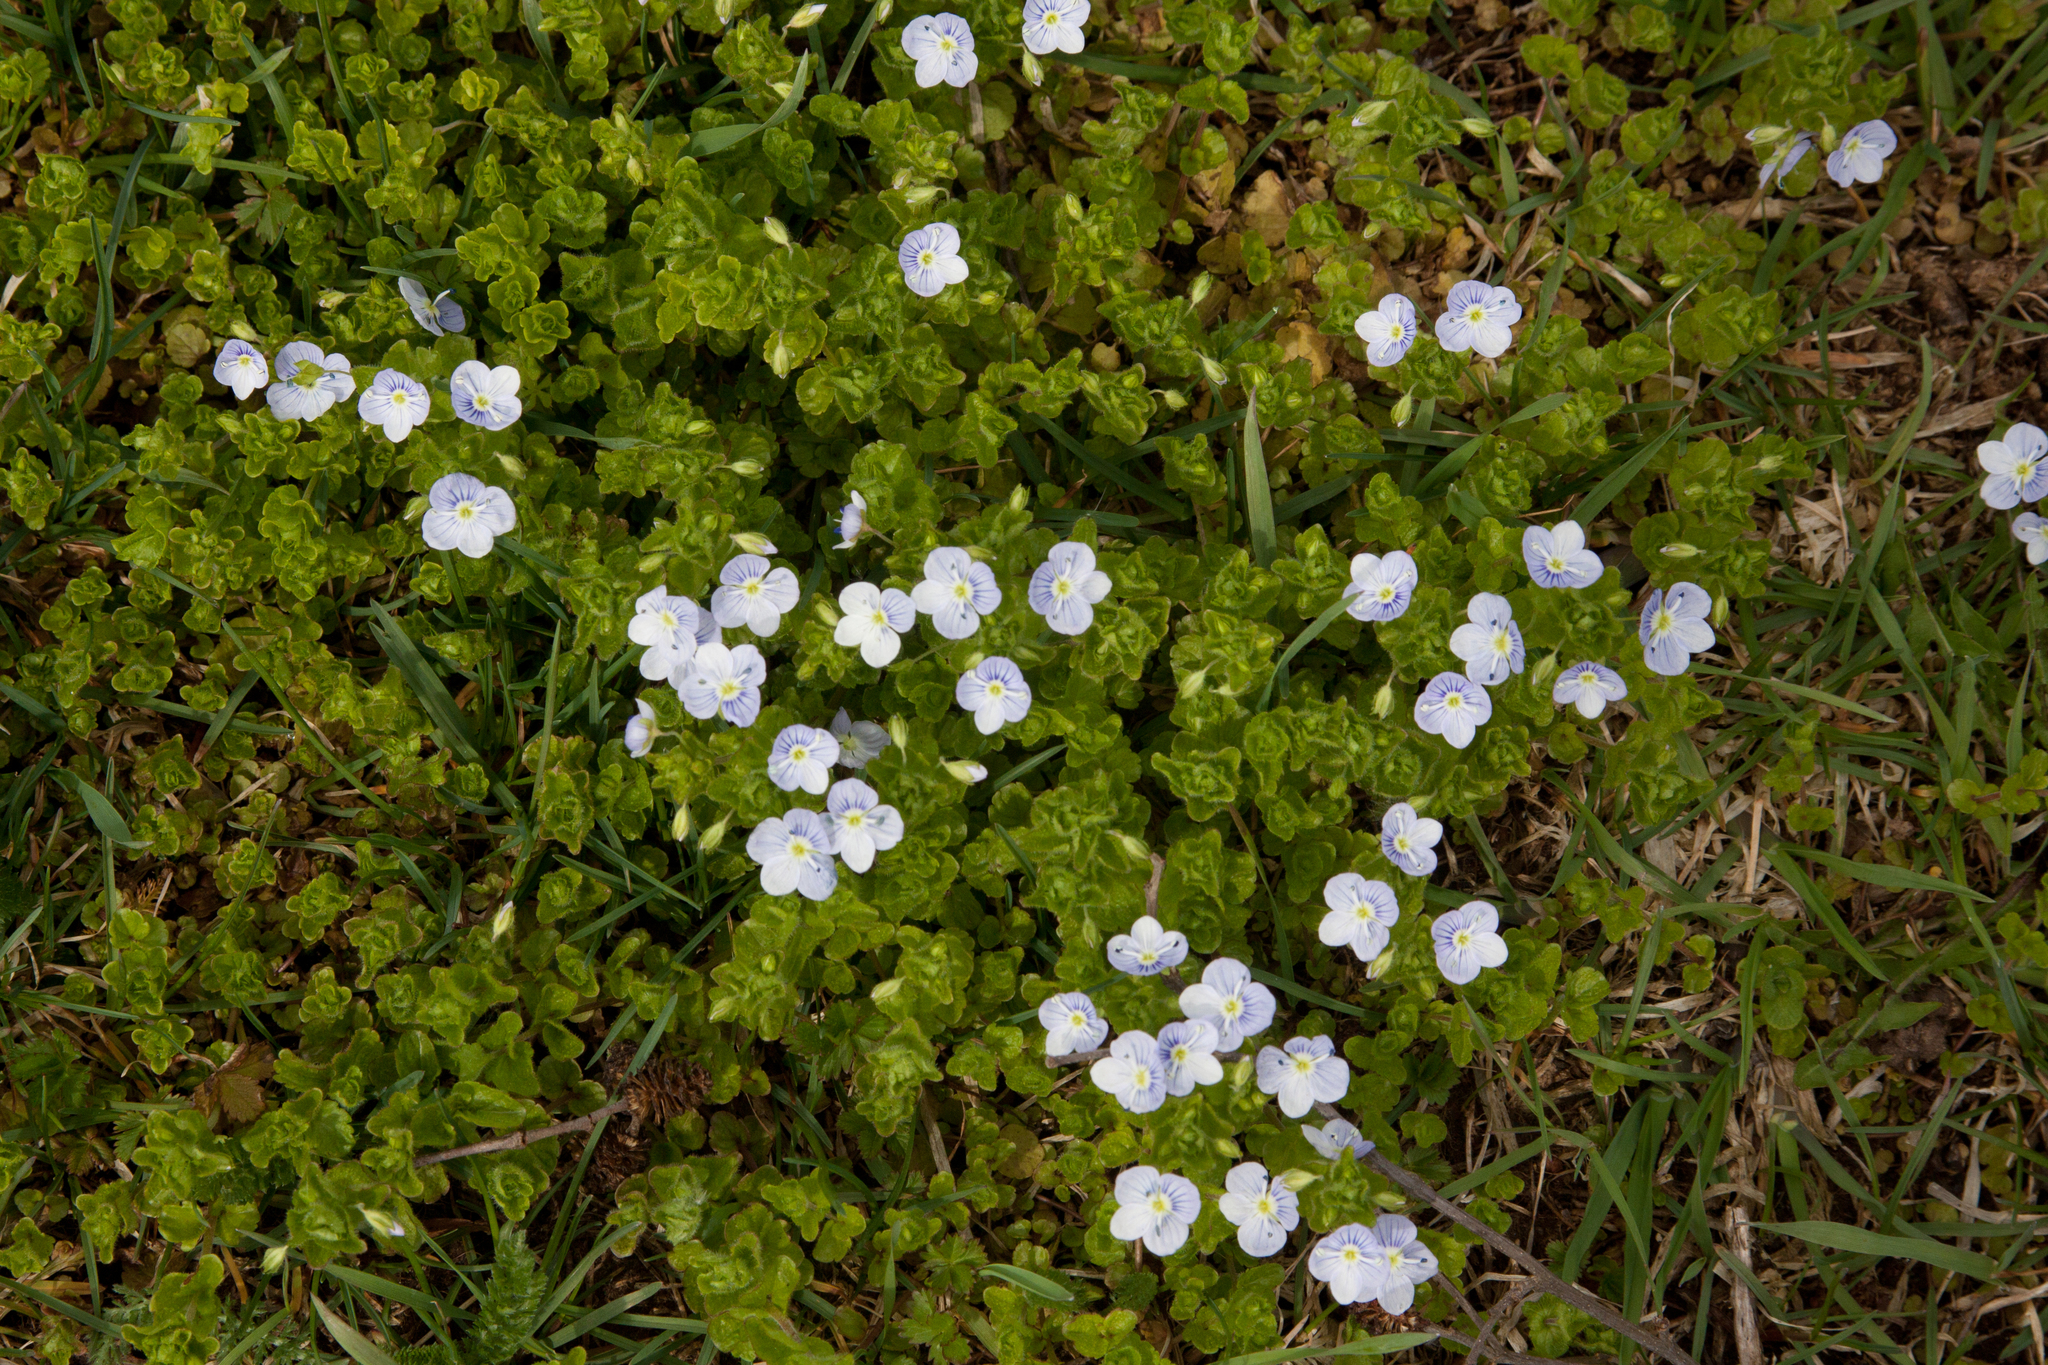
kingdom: Plantae
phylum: Tracheophyta
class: Magnoliopsida
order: Lamiales
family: Plantaginaceae
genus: Veronica
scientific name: Veronica filiformis
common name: Slender speedwell
